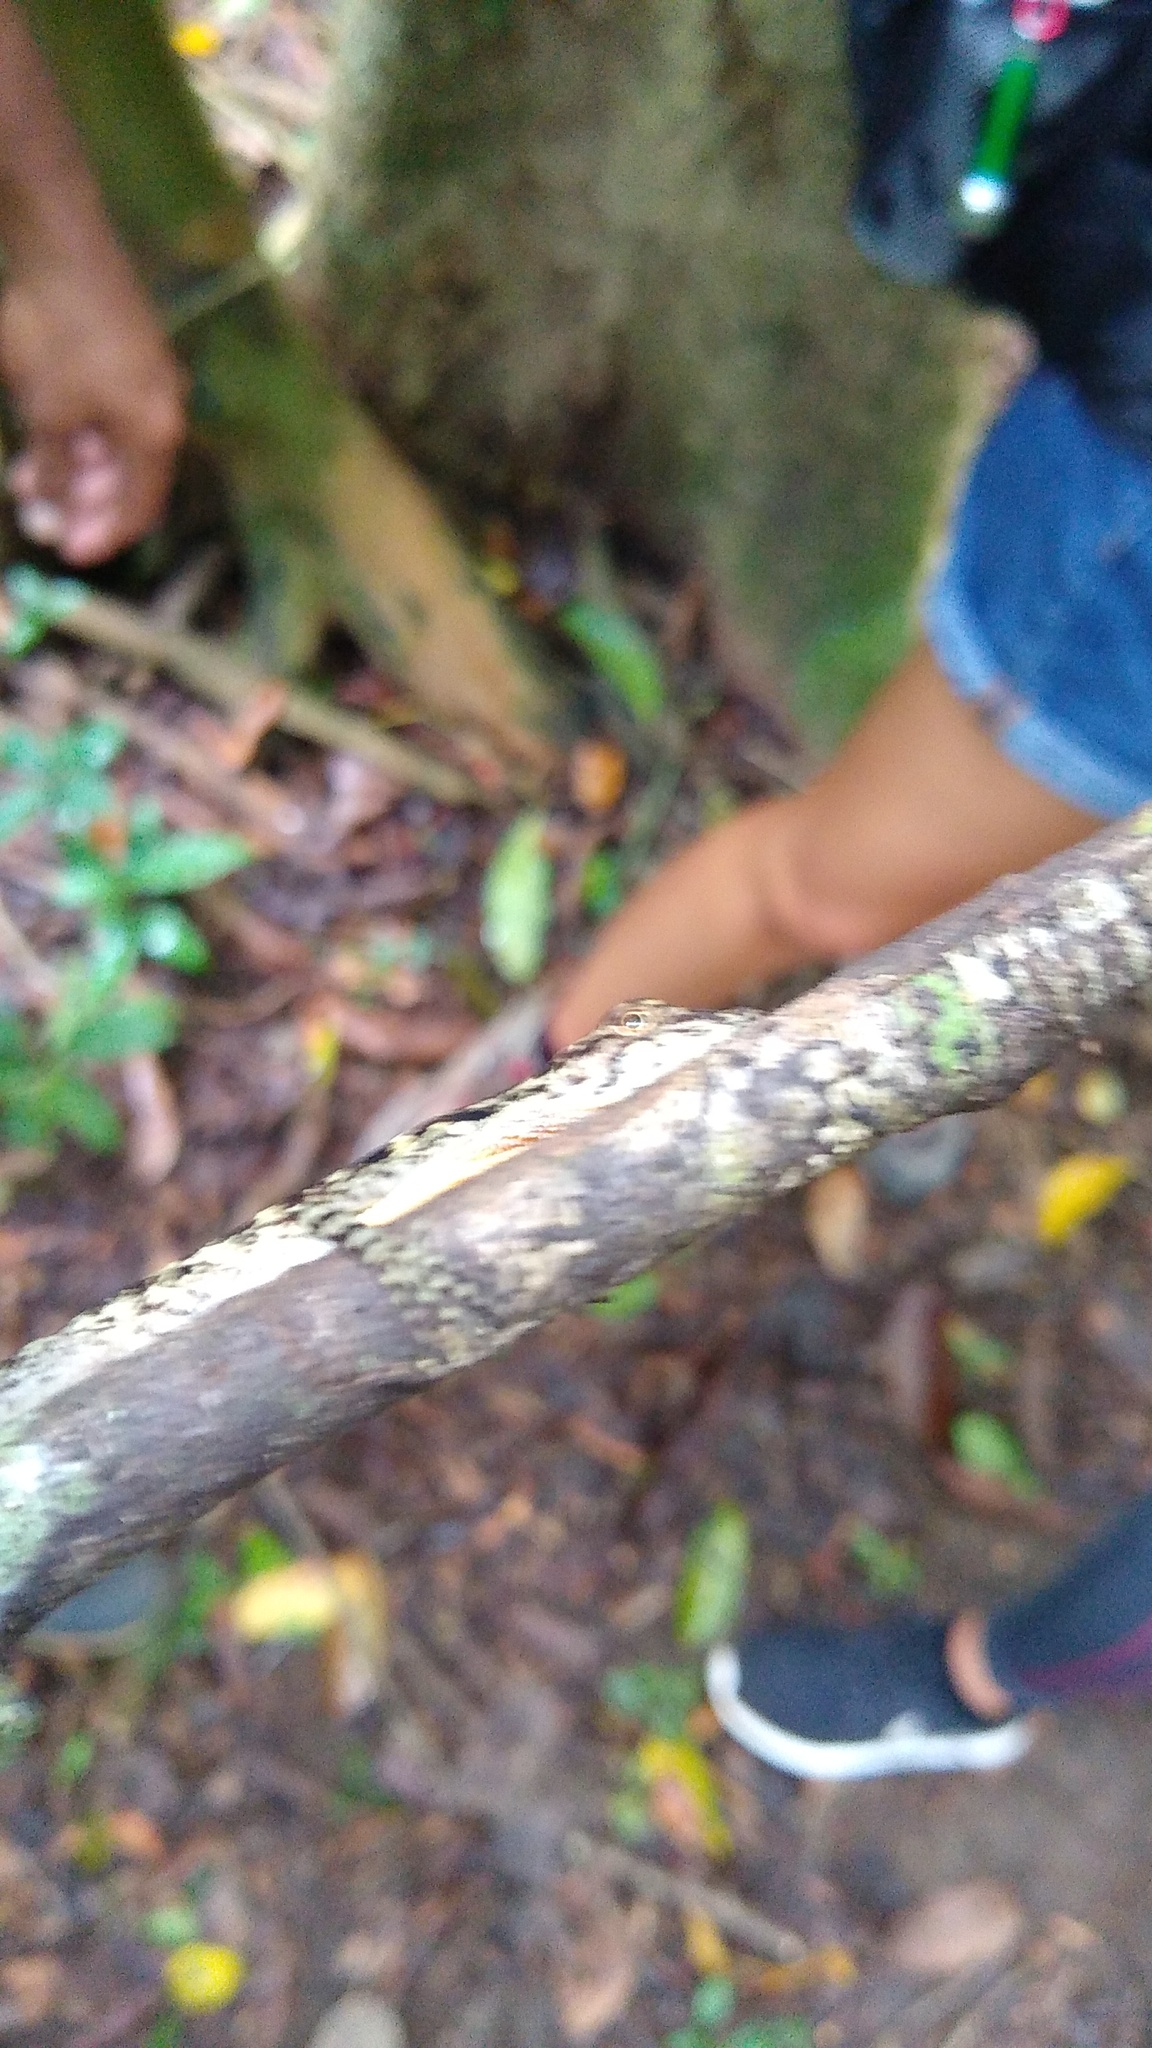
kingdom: Animalia
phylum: Chordata
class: Squamata
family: Dactyloidae
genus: Anolis
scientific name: Anolis charlesmyersi
